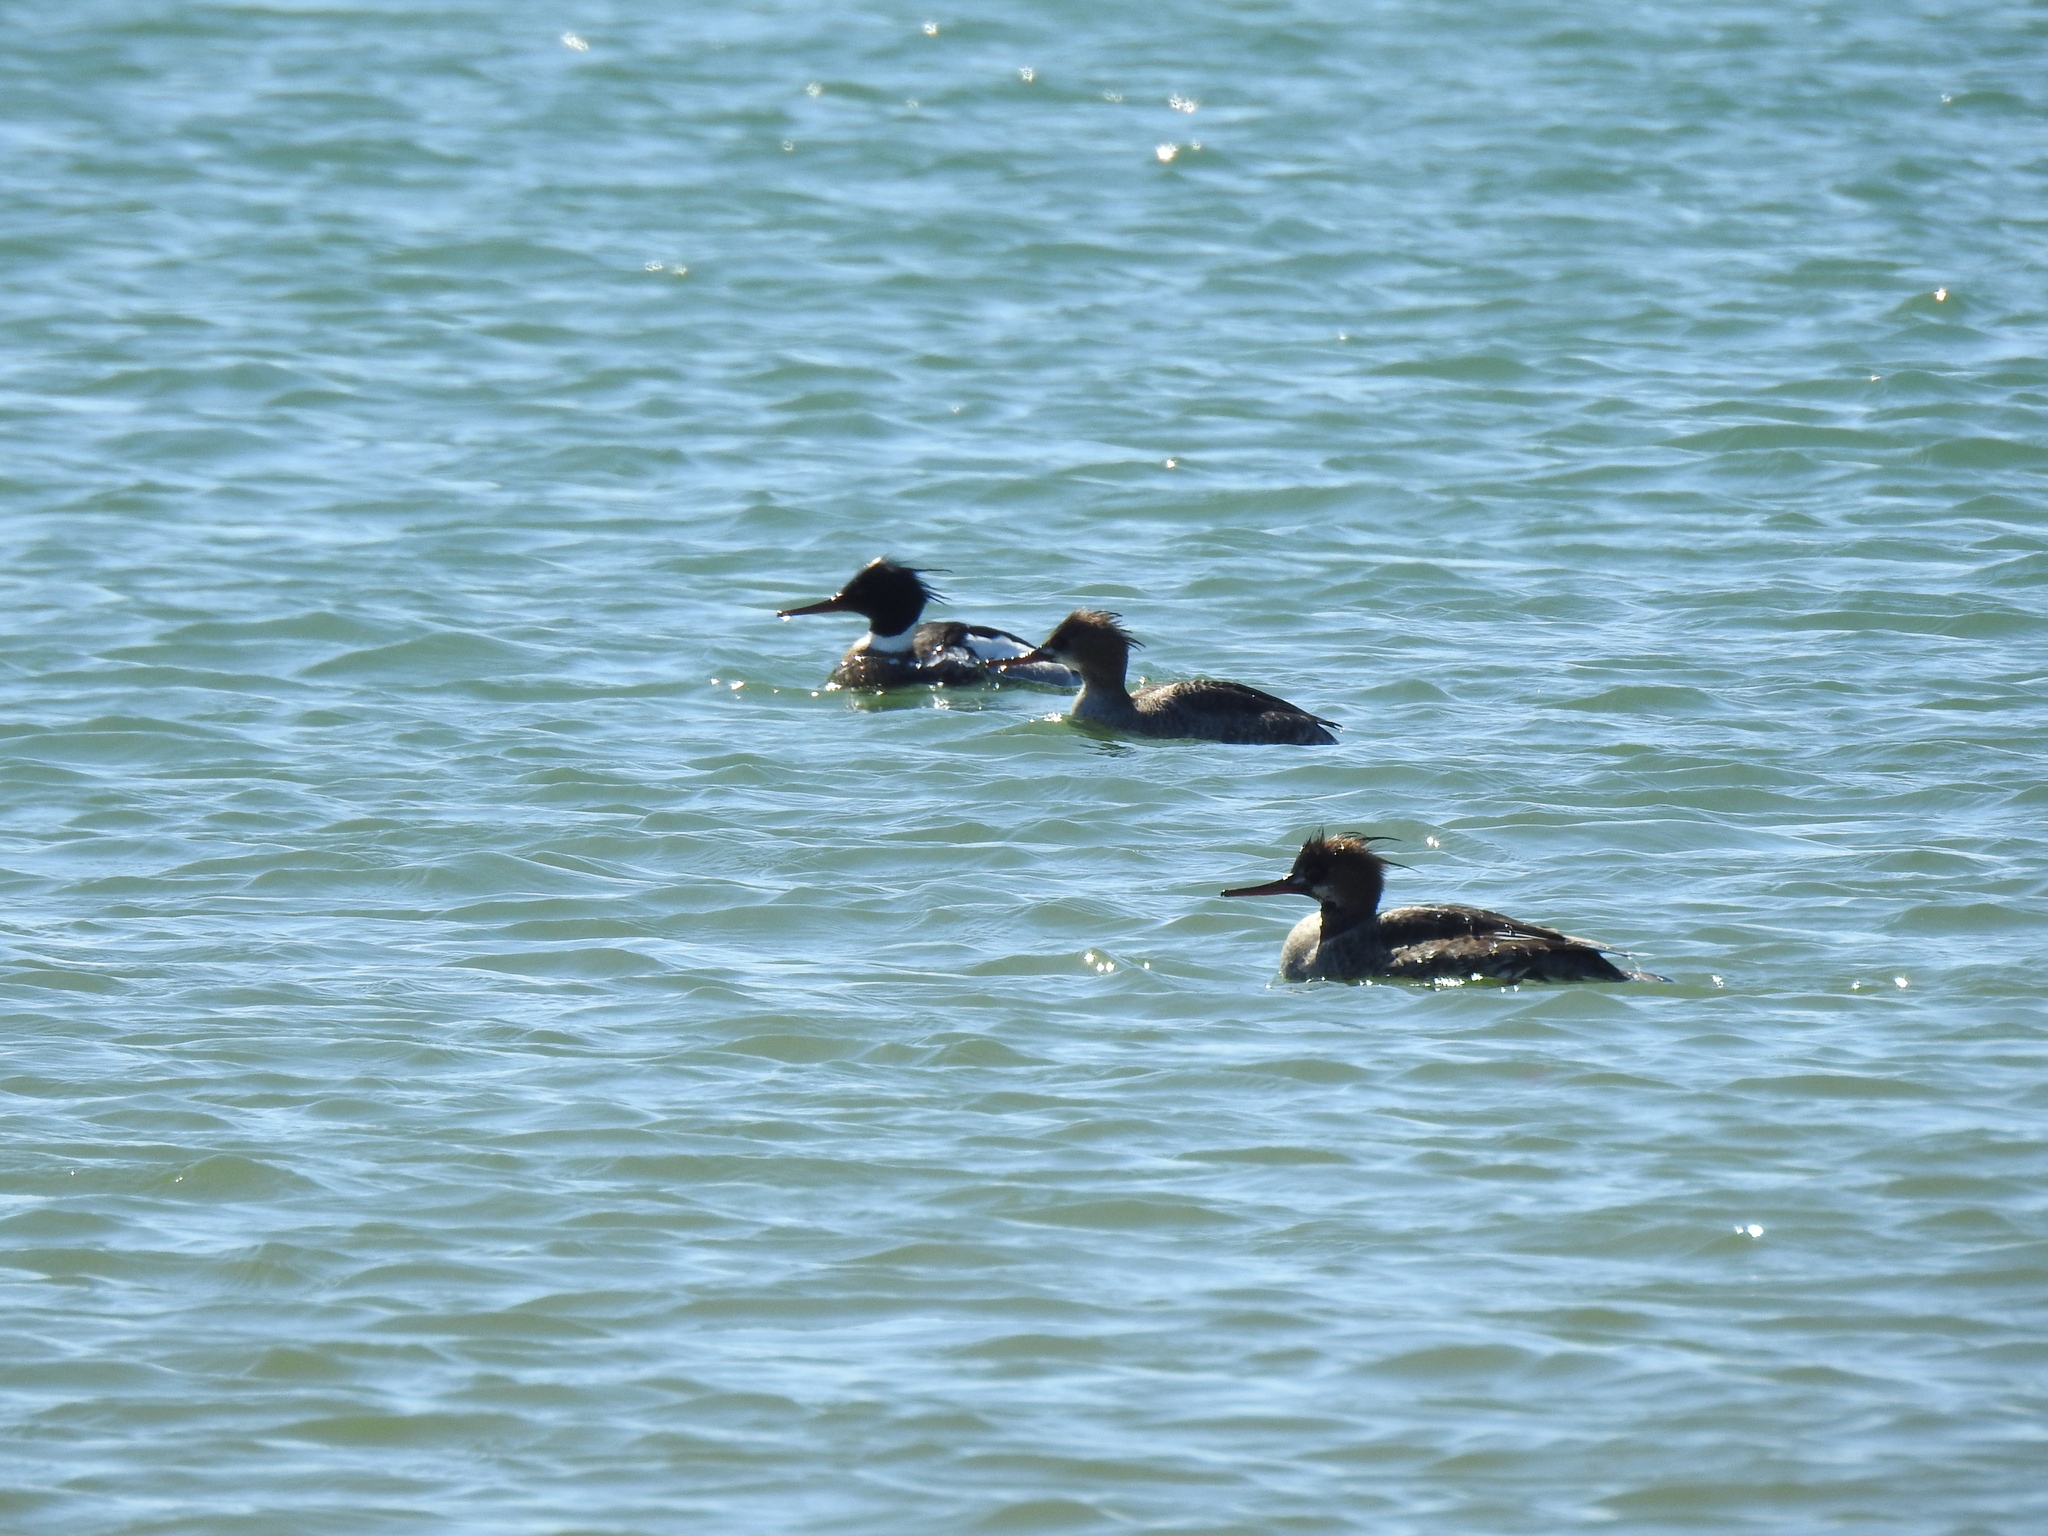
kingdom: Animalia
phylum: Chordata
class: Aves
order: Anseriformes
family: Anatidae
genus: Mergus
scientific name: Mergus serrator
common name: Red-breasted merganser
